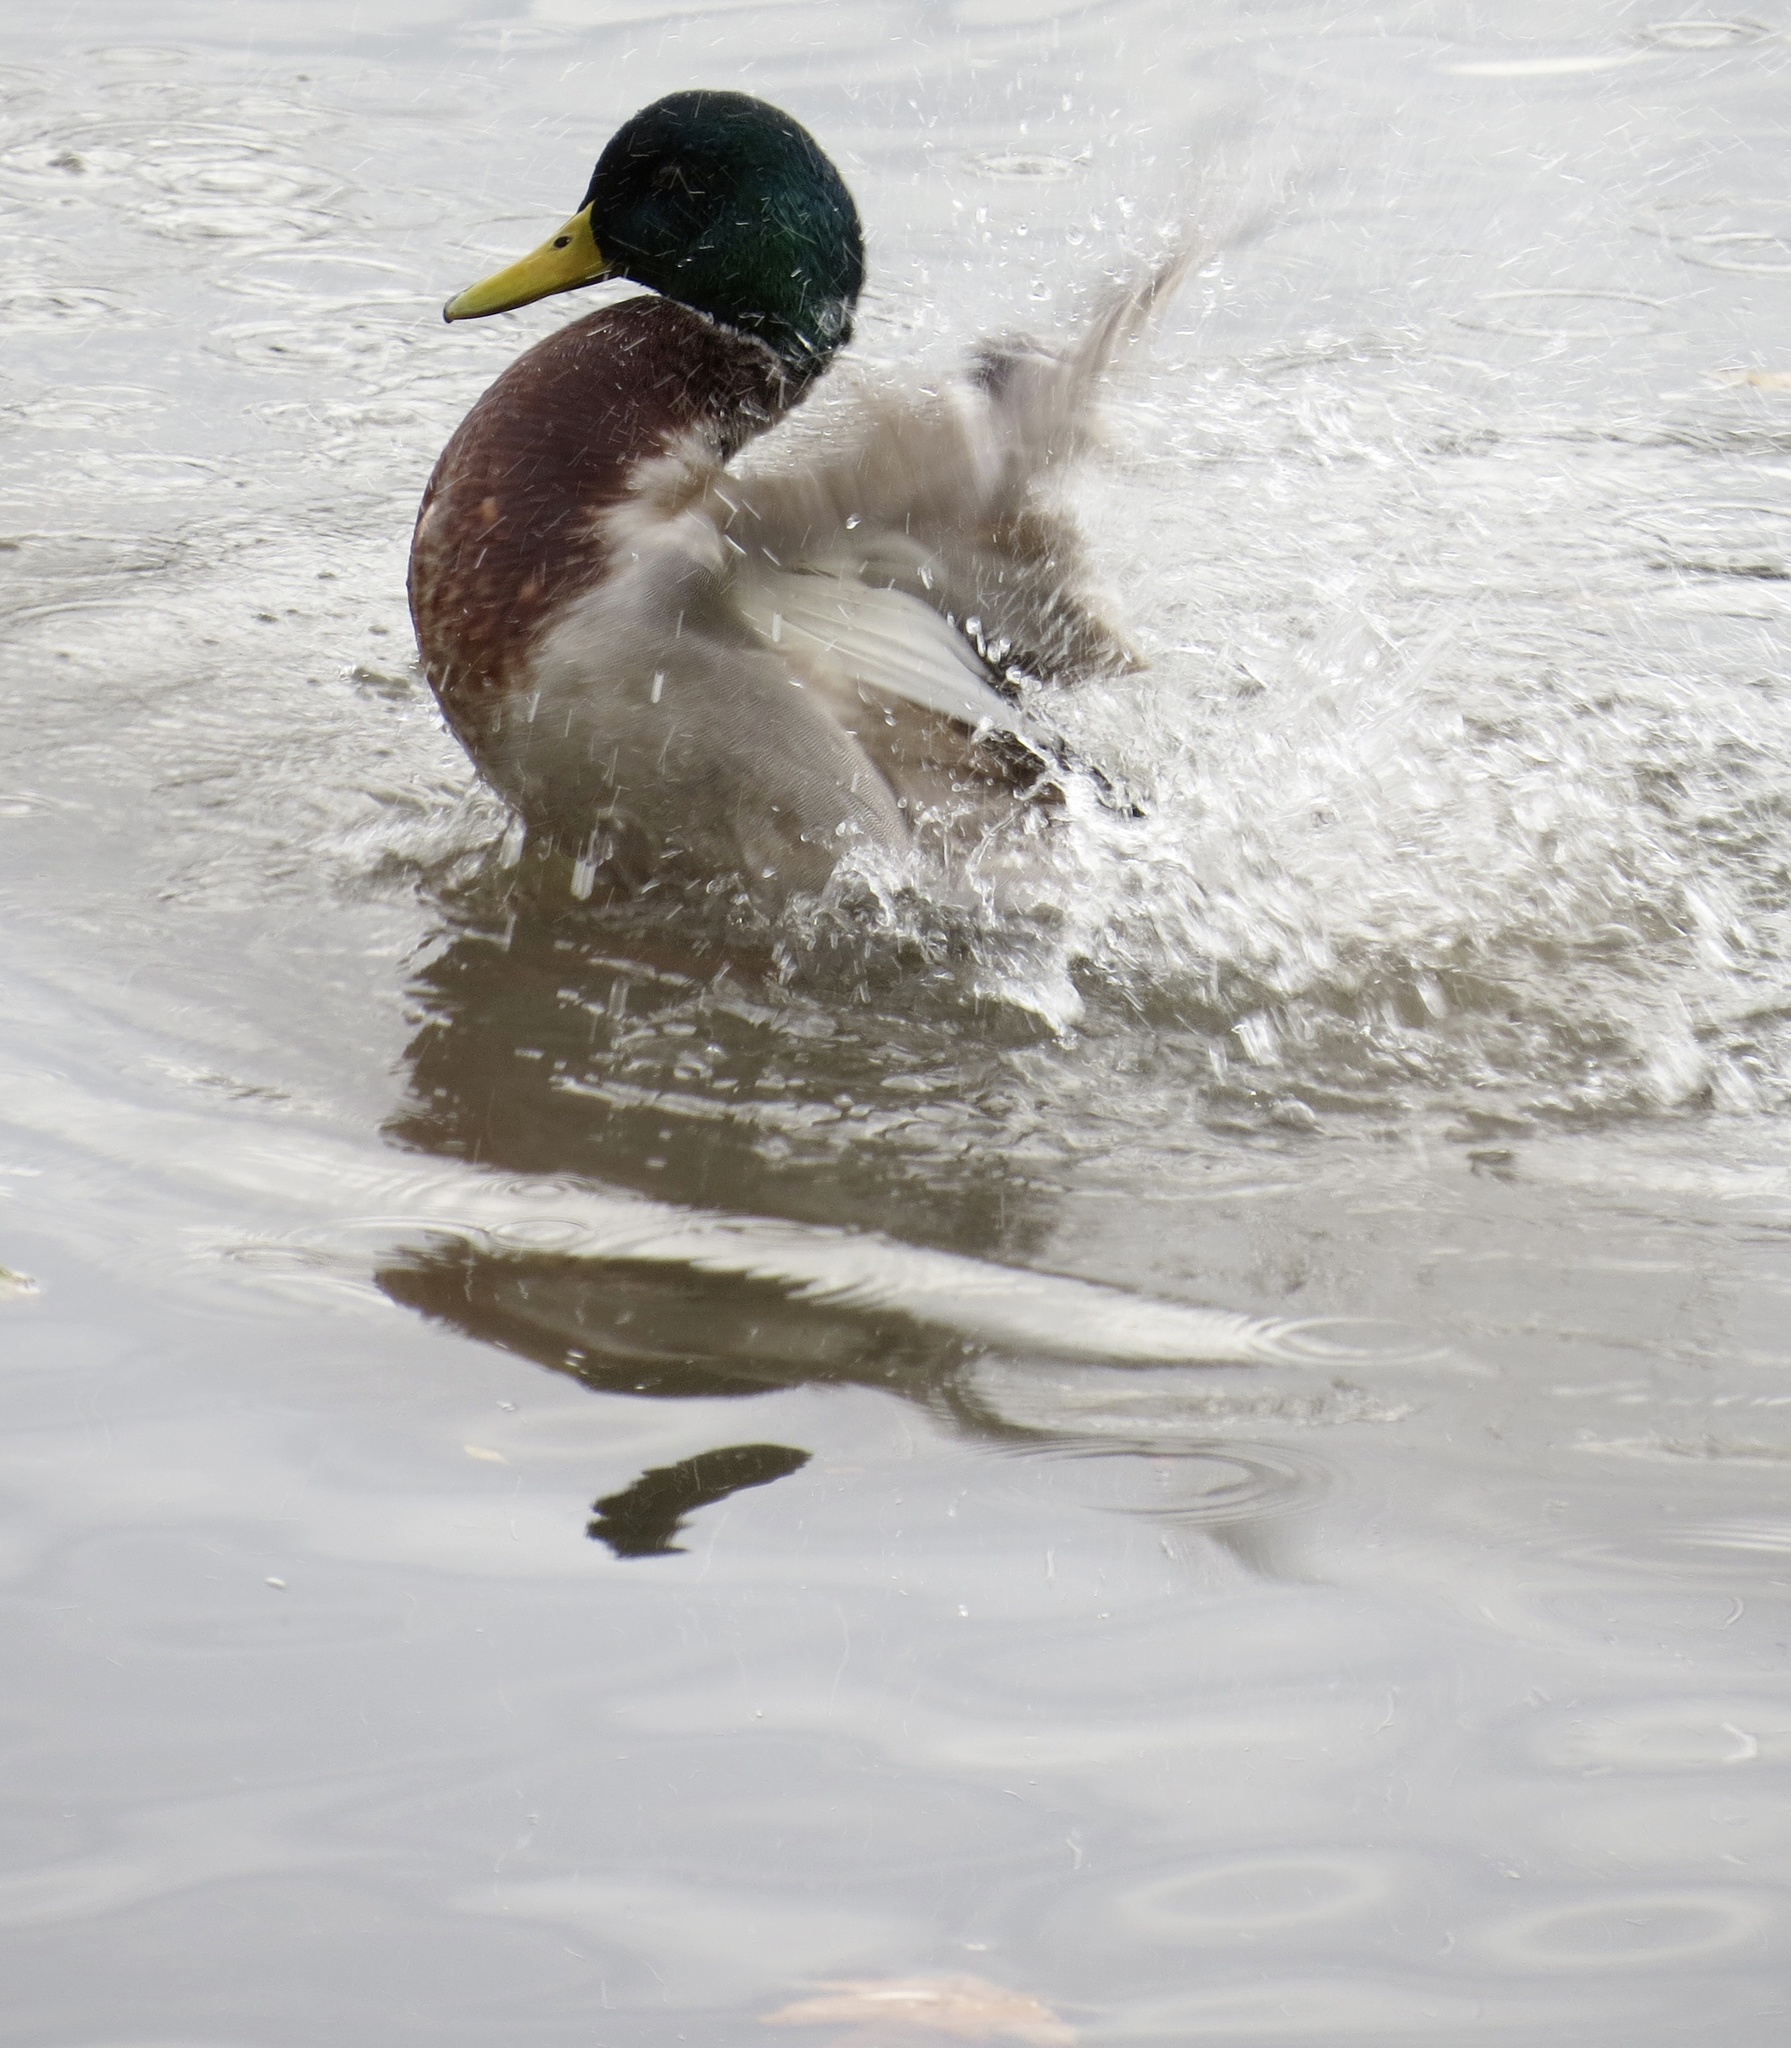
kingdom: Animalia
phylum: Chordata
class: Aves
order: Anseriformes
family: Anatidae
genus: Anas
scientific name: Anas platyrhynchos
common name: Mallard
